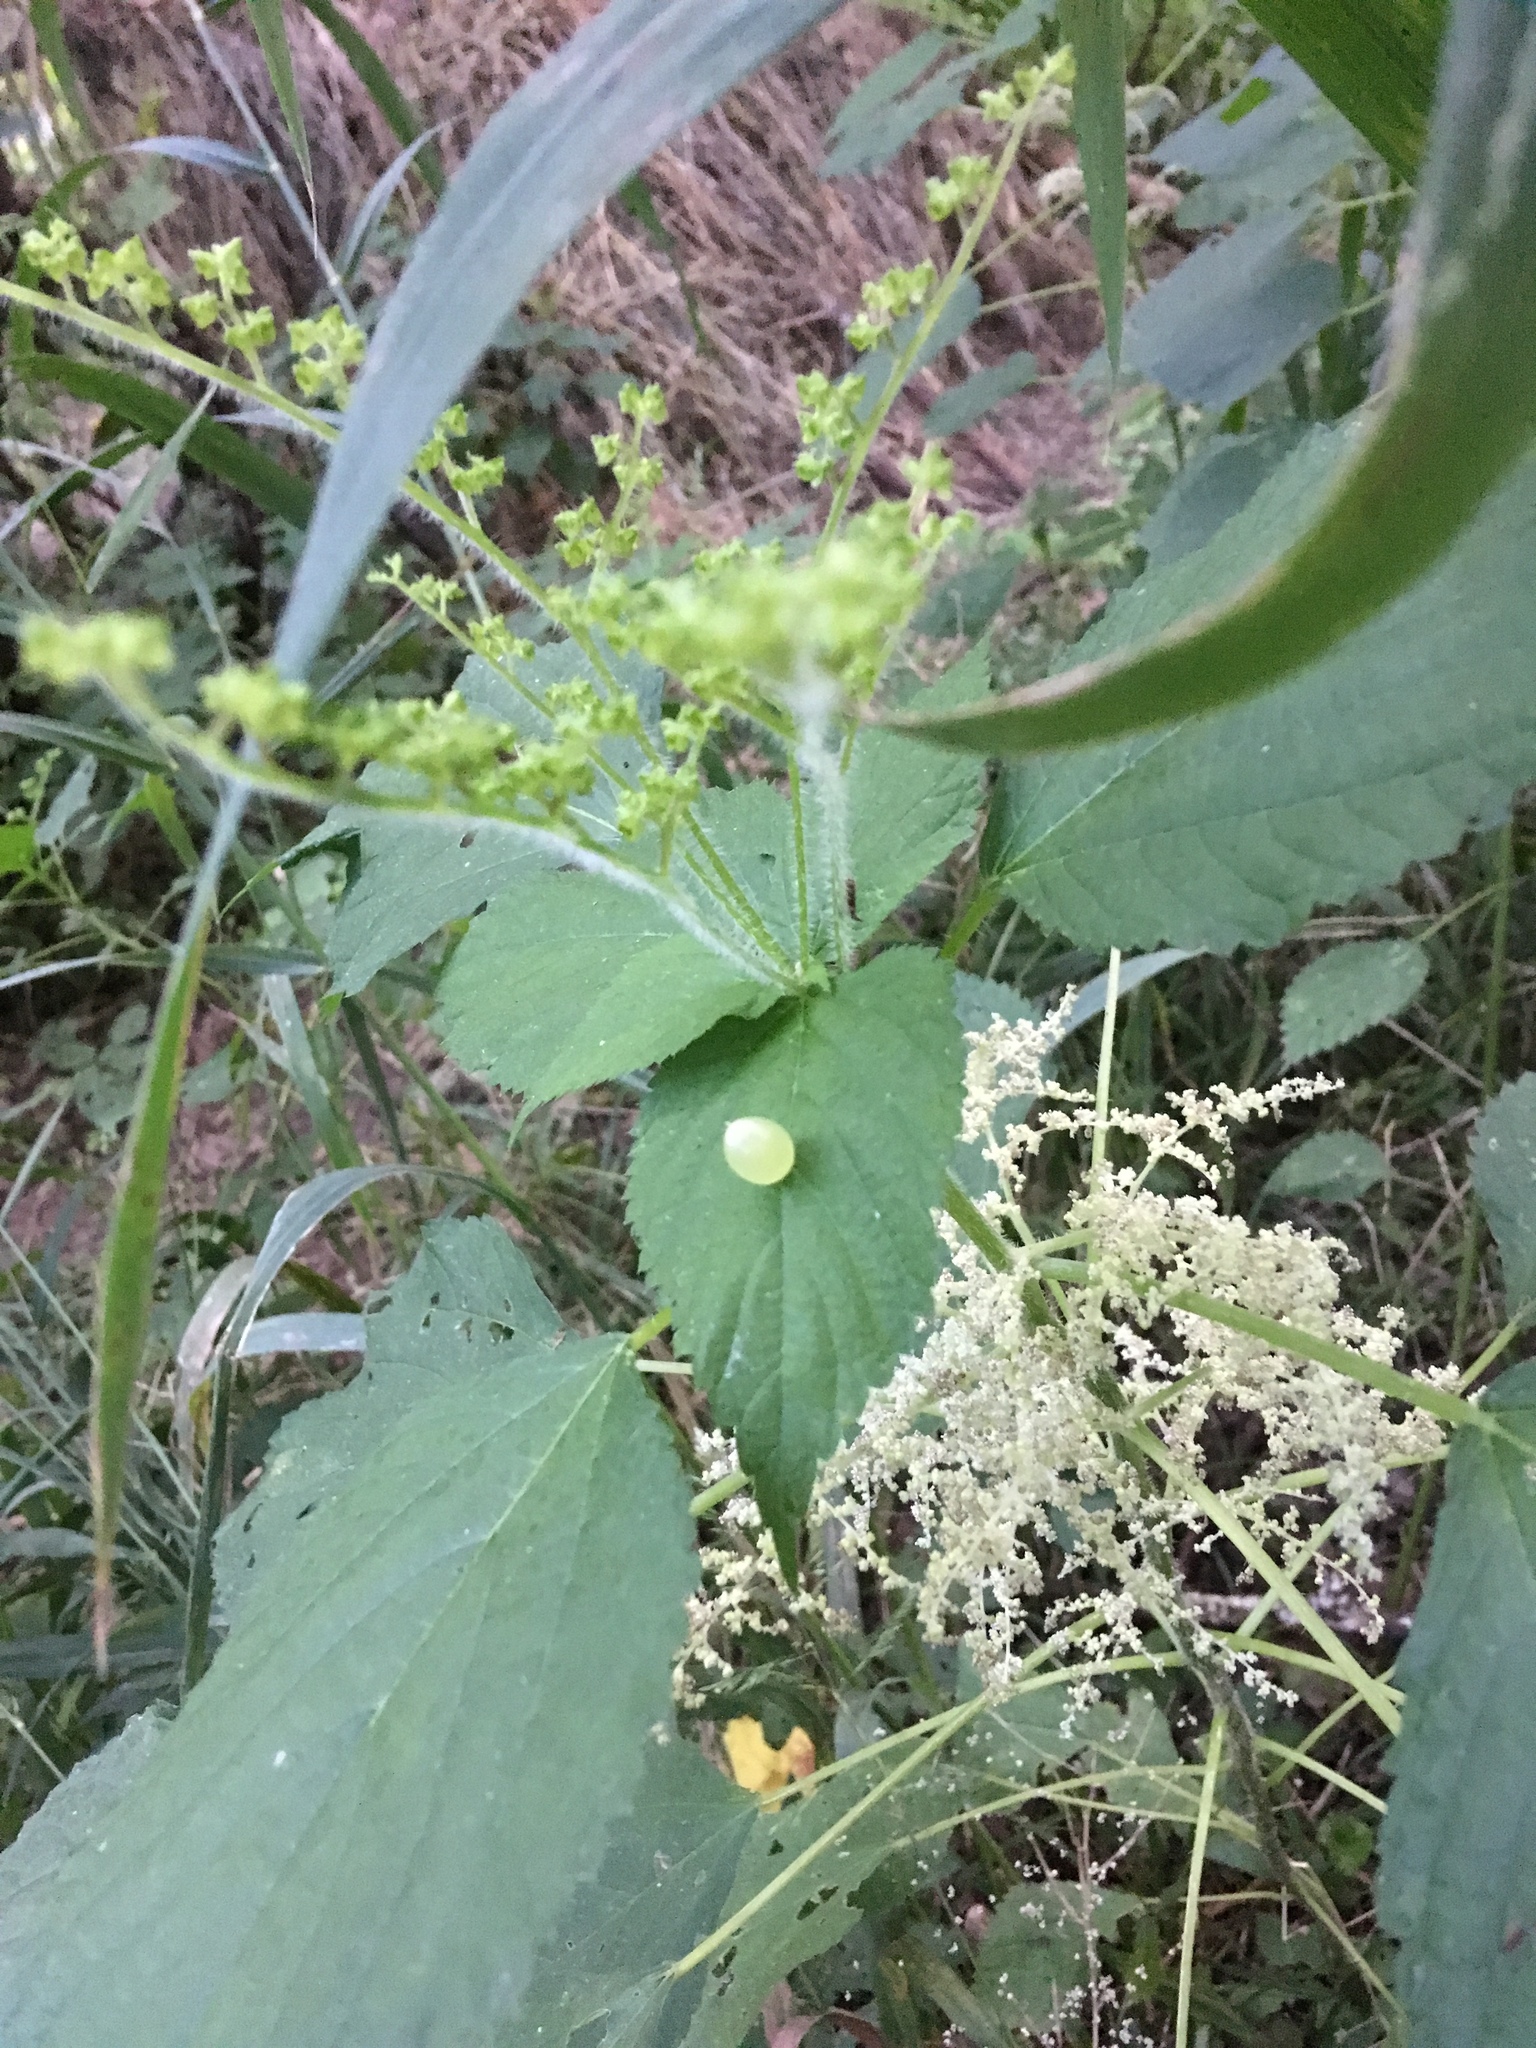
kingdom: Animalia
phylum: Arthropoda
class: Insecta
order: Diptera
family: Cecidomyiidae
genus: Dasineura
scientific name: Dasineura investita
